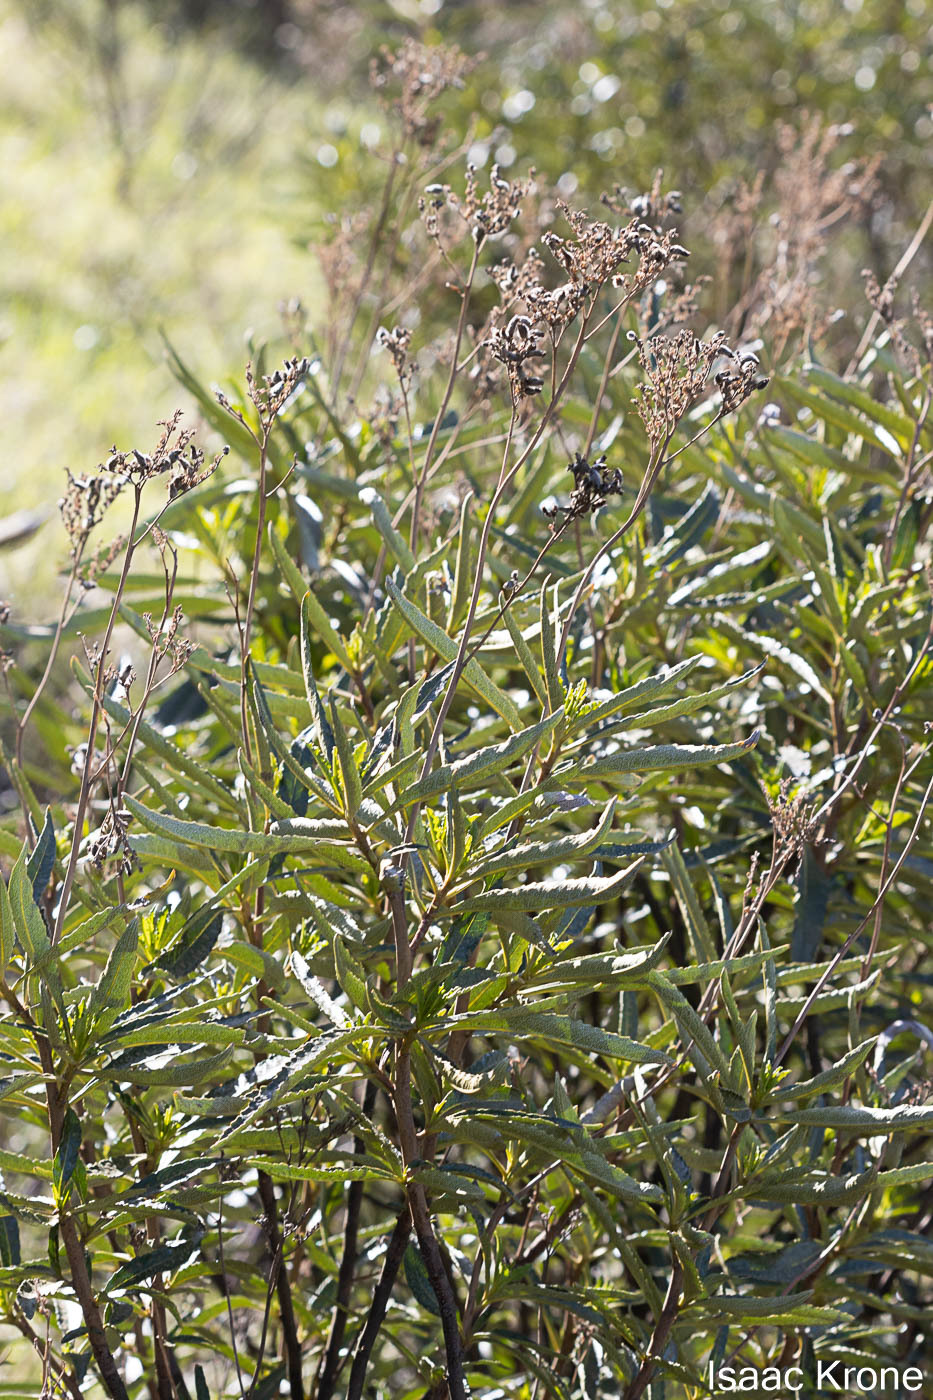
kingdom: Plantae
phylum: Tracheophyta
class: Magnoliopsida
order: Boraginales
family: Namaceae
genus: Eriodictyon
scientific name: Eriodictyon californicum
